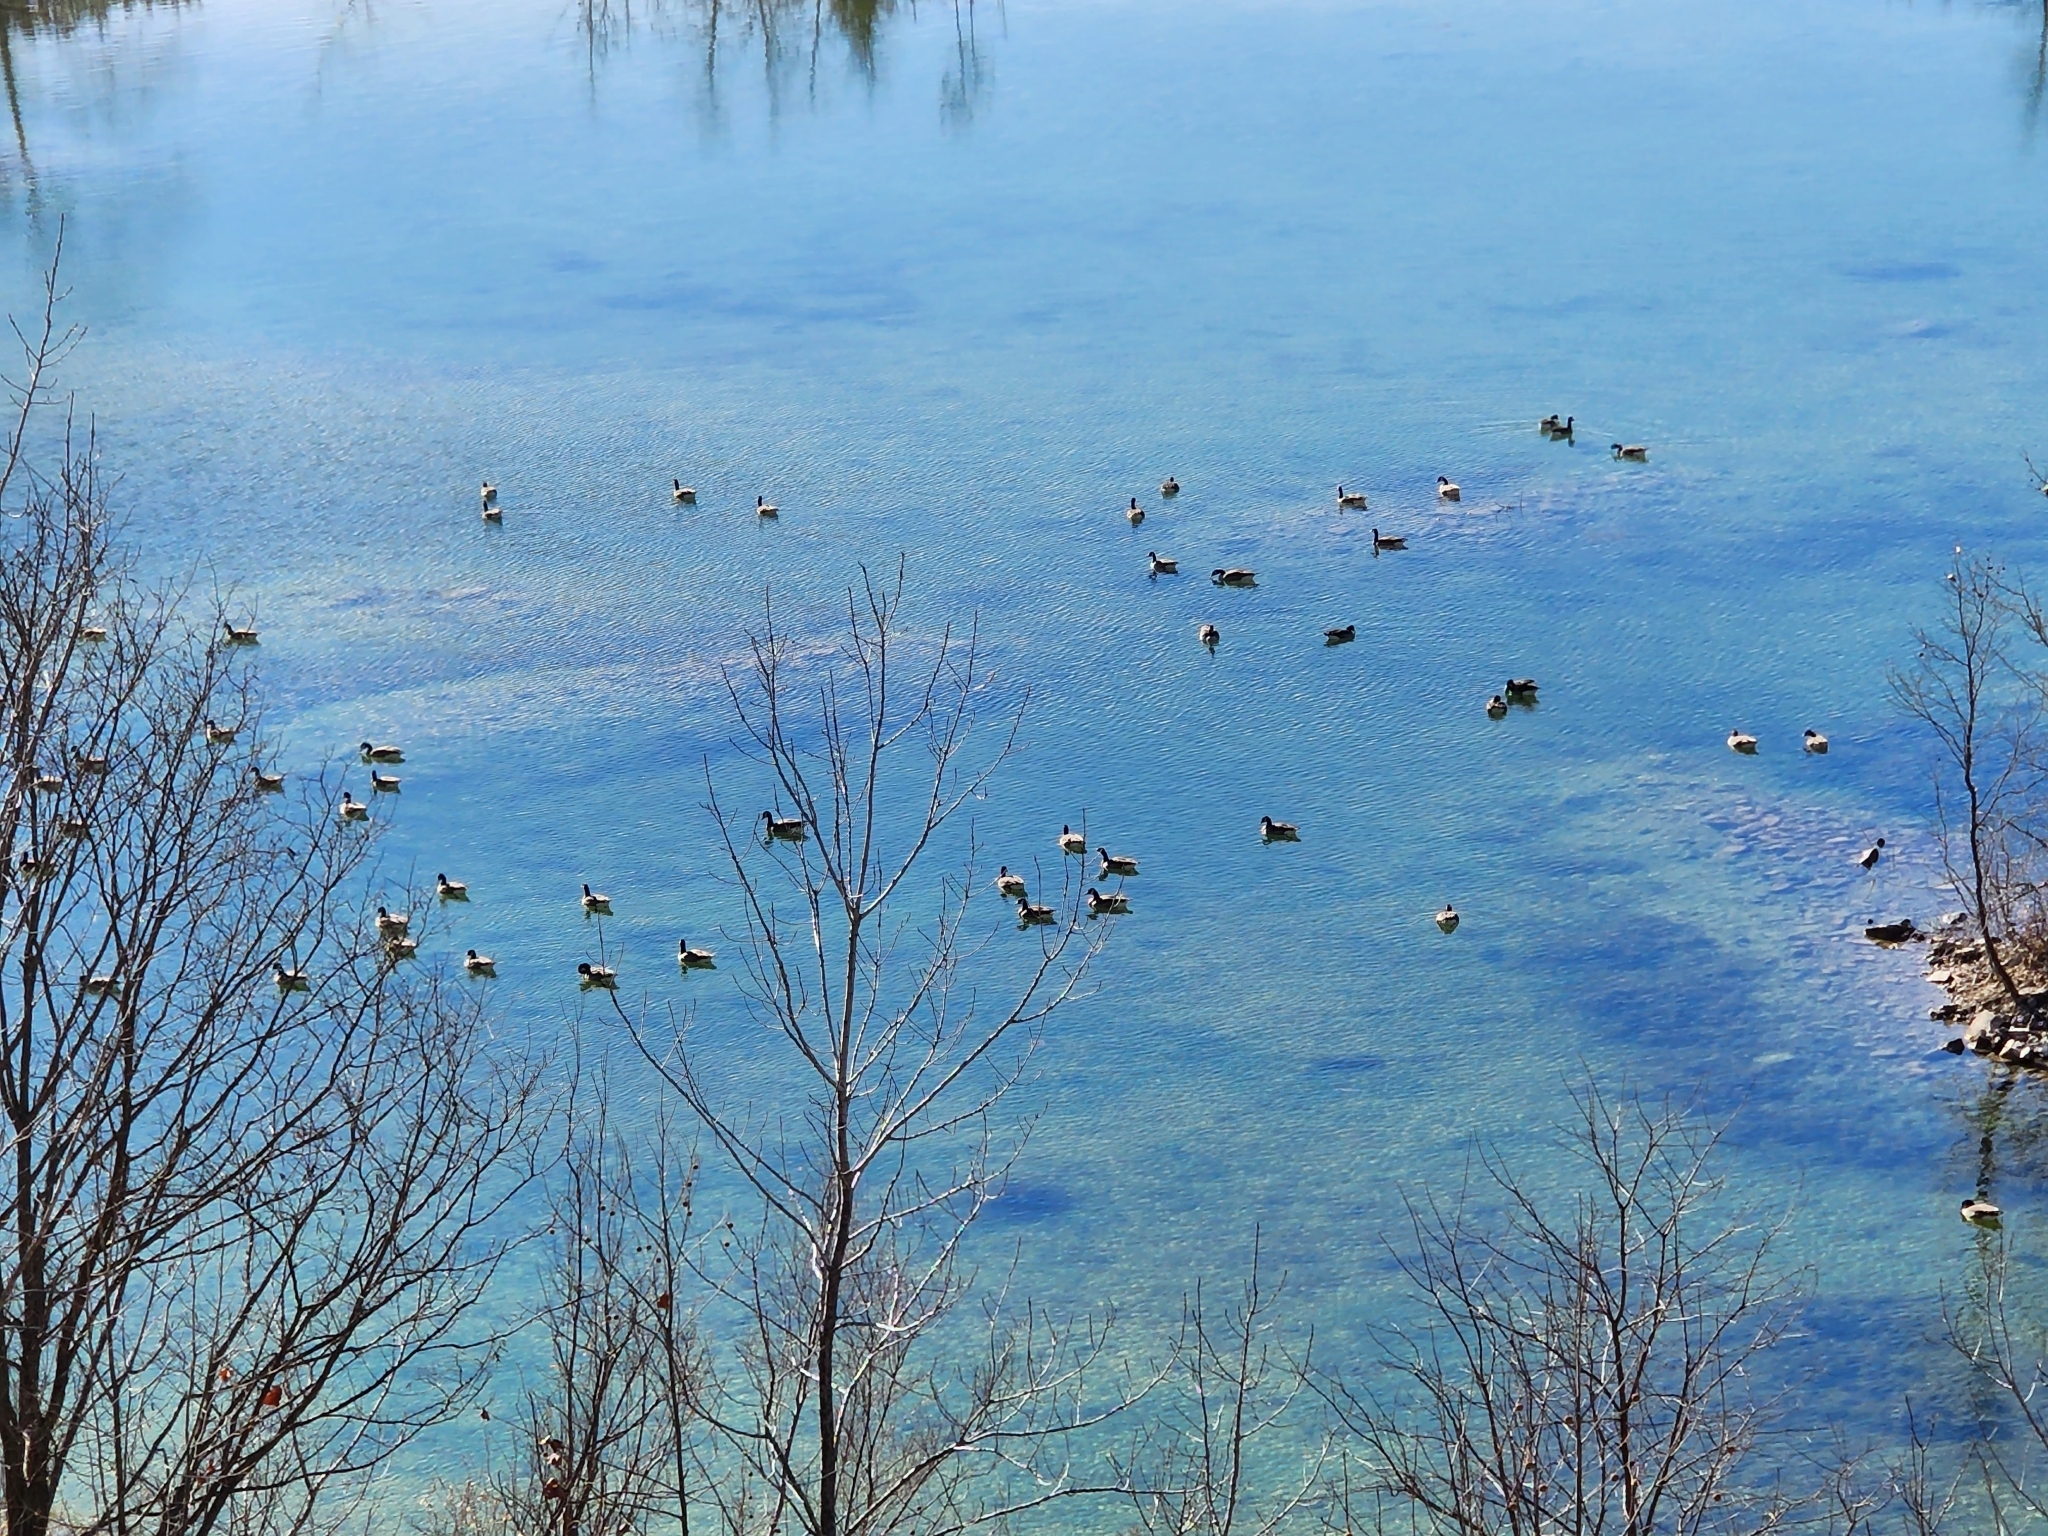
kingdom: Animalia
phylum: Chordata
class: Aves
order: Anseriformes
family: Anatidae
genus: Branta
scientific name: Branta canadensis
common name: Canada goose
